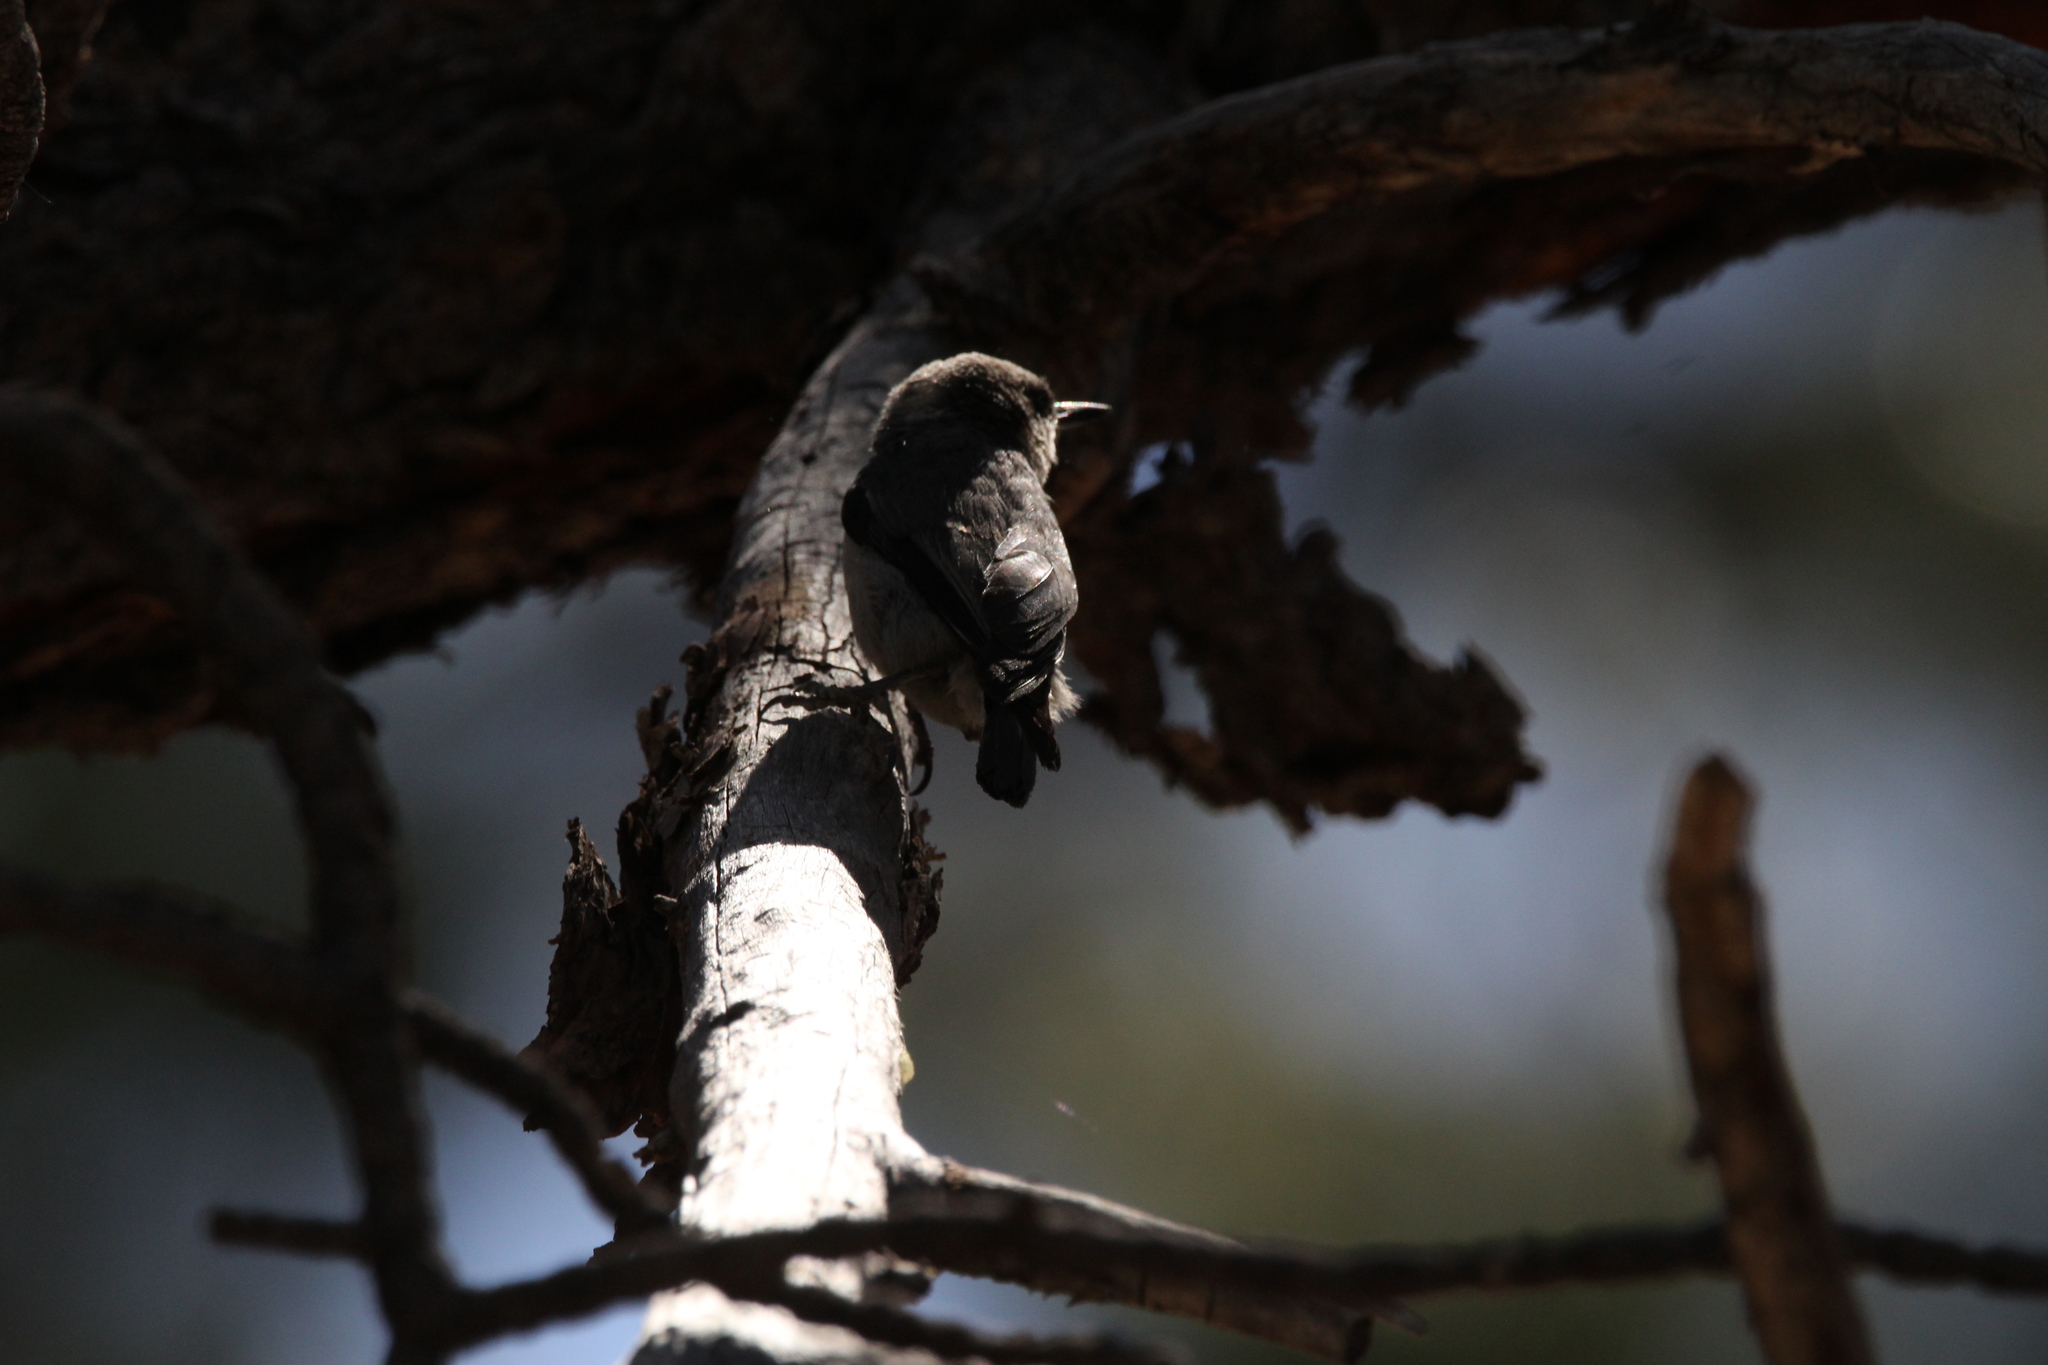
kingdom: Animalia
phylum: Chordata
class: Aves
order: Passeriformes
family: Sittidae
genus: Sitta
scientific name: Sitta pygmaea
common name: Pygmy nuthatch
